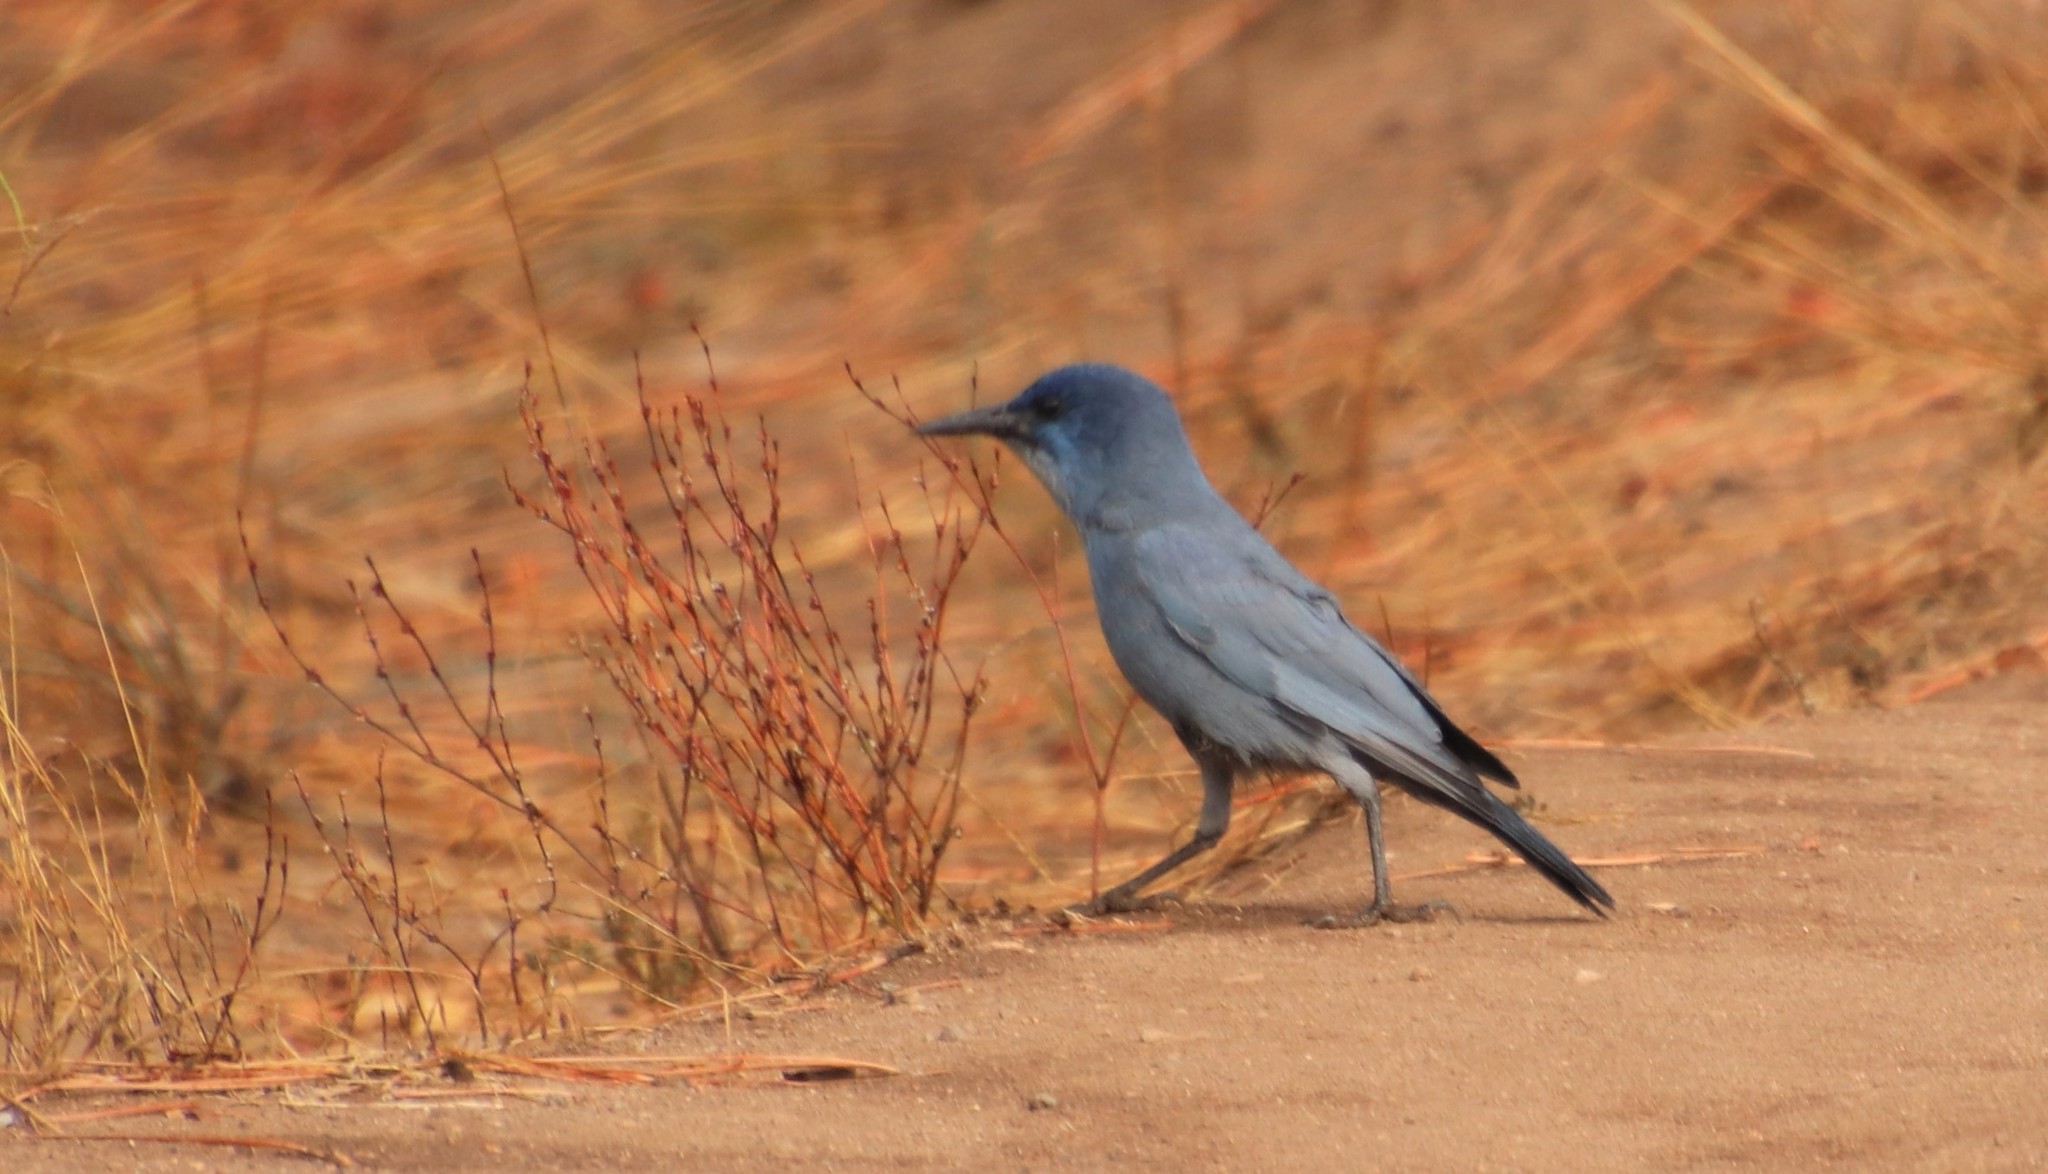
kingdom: Animalia
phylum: Chordata
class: Aves
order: Passeriformes
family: Corvidae
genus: Gymnorhinus
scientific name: Gymnorhinus cyanocephalus
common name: Pinyon jay
